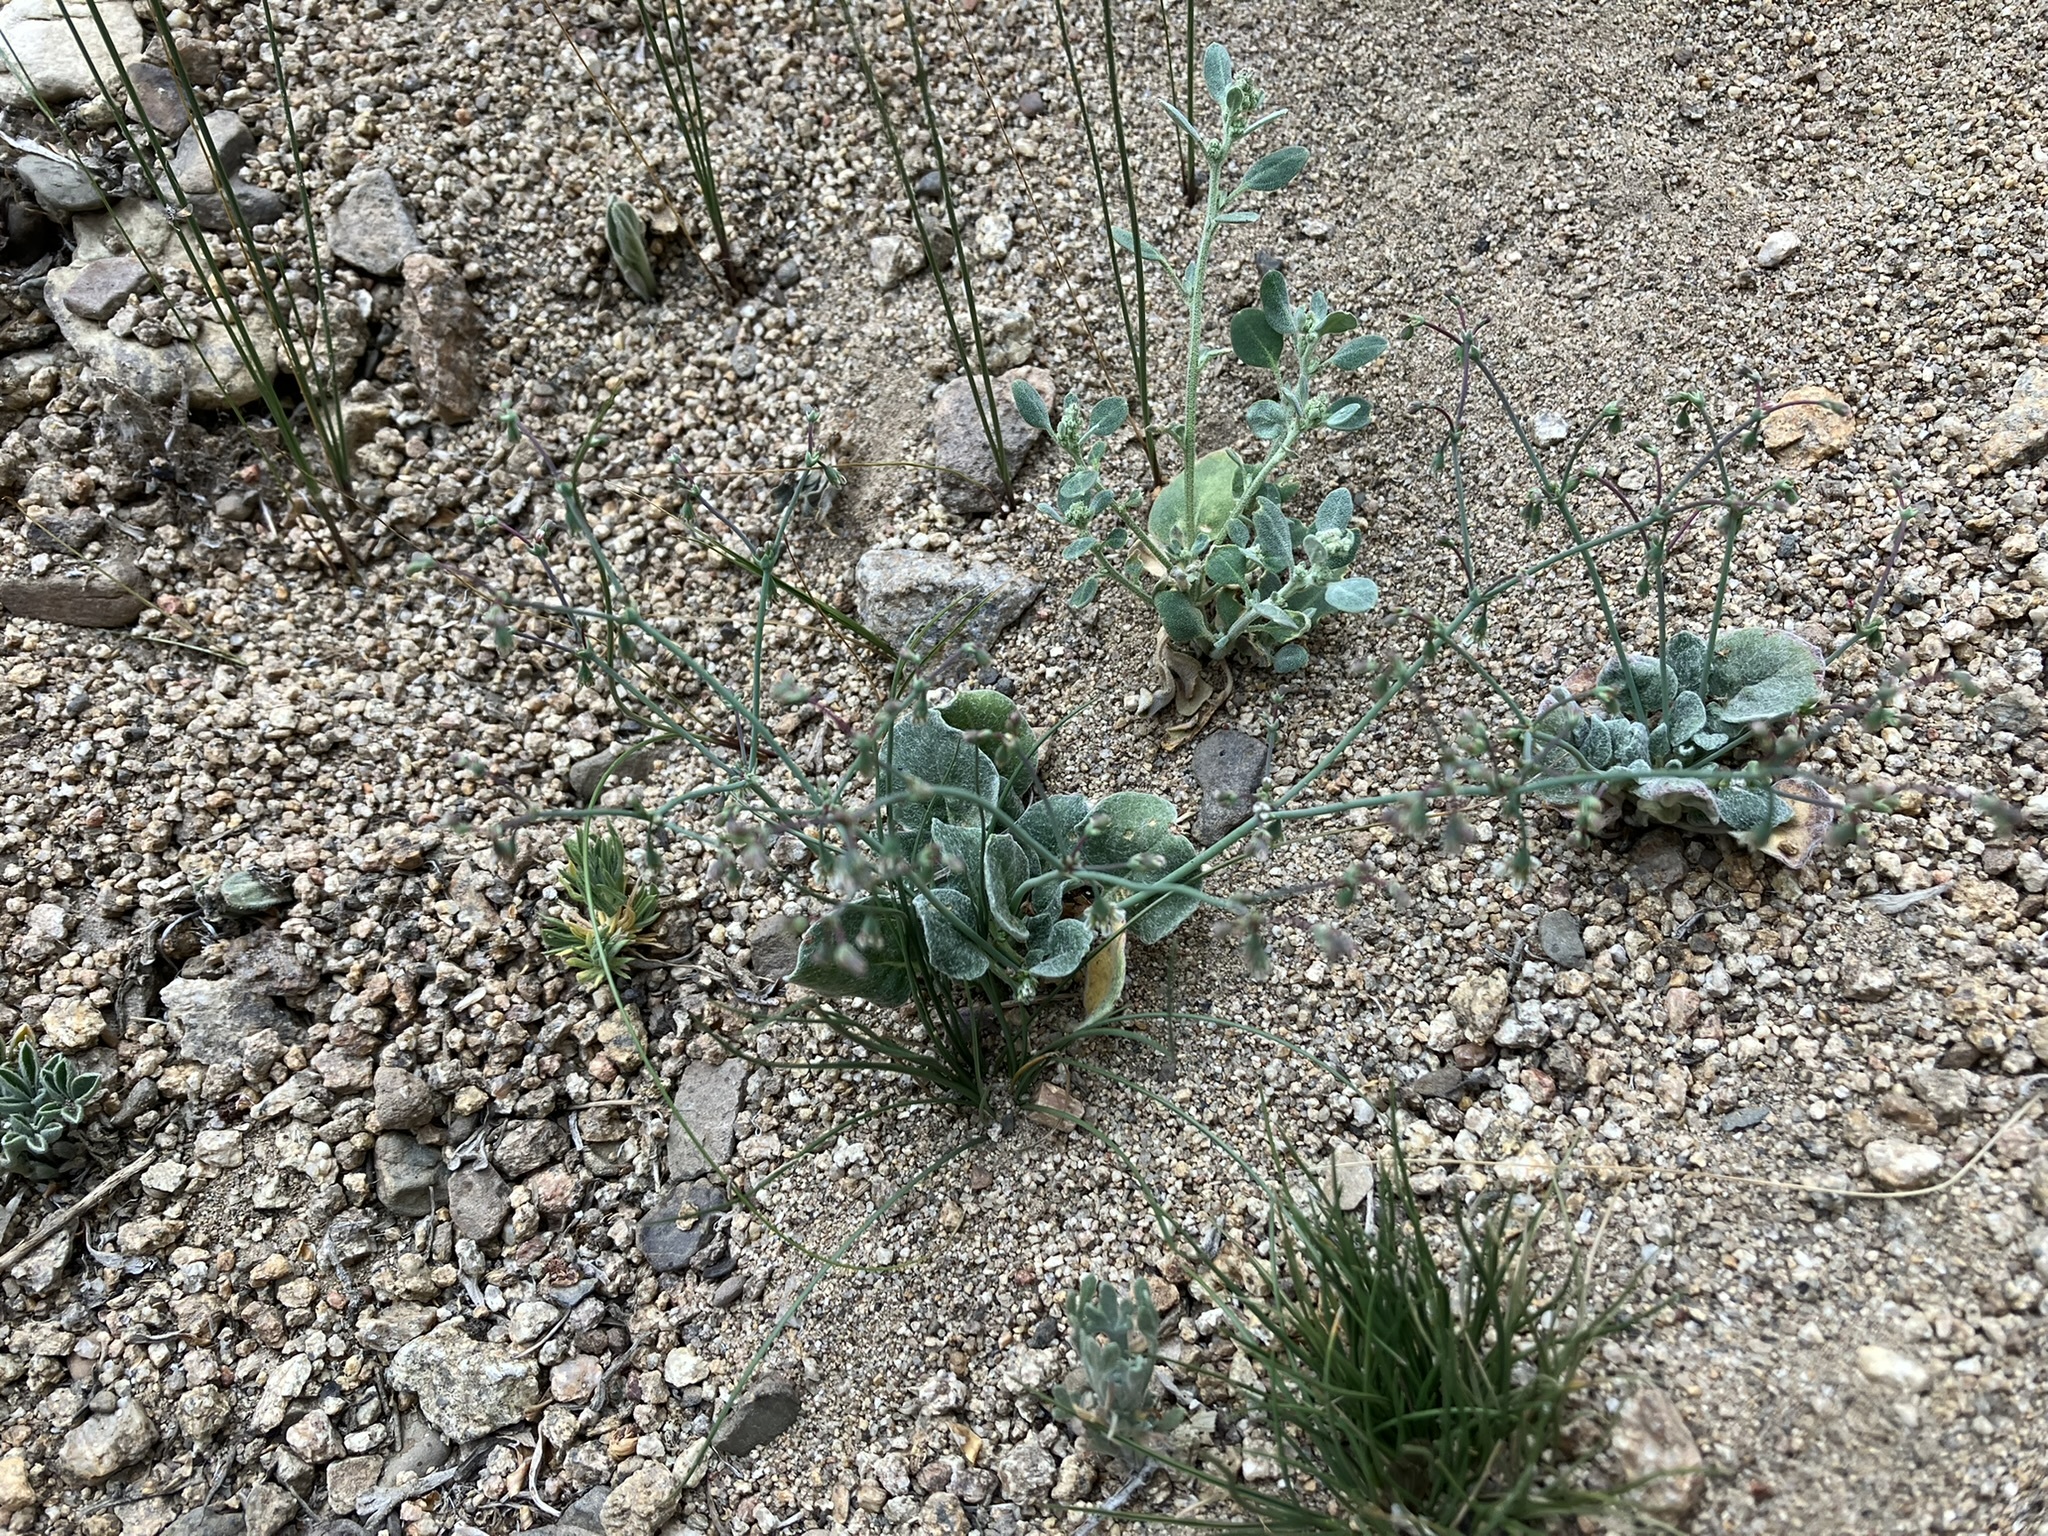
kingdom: Plantae
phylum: Tracheophyta
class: Magnoliopsida
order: Caryophyllales
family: Polygonaceae
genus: Eriogonum
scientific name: Eriogonum cernuum
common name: Nodding wild buckwheat
